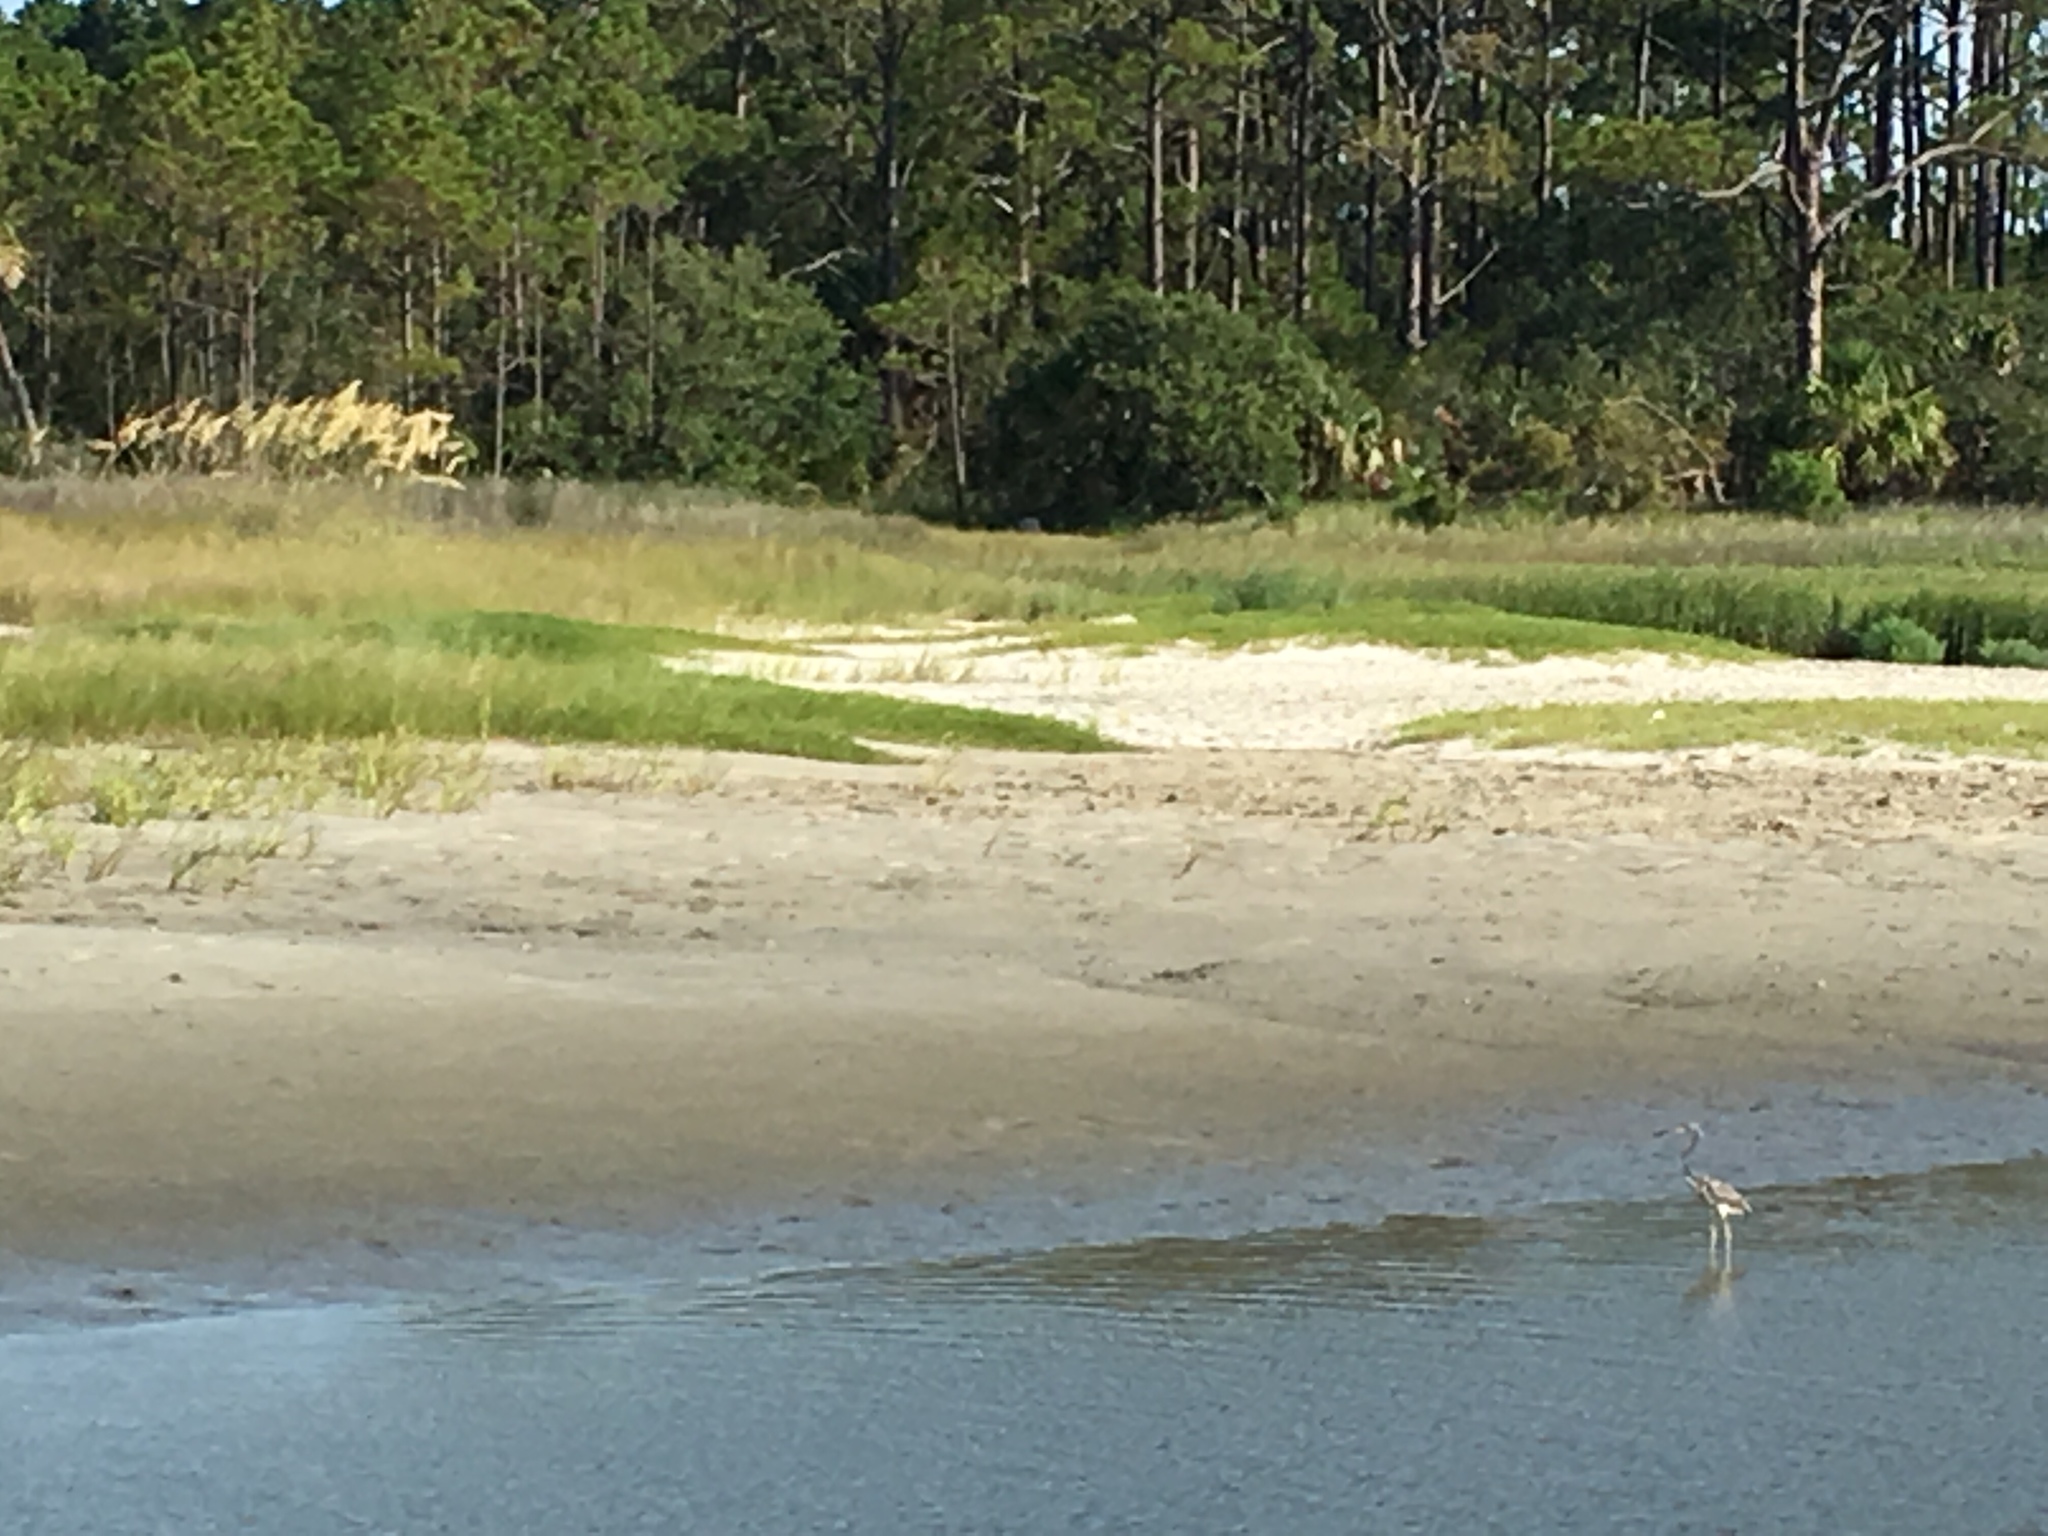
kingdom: Animalia
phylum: Chordata
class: Aves
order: Pelecaniformes
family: Ardeidae
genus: Egretta
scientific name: Egretta tricolor
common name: Tricolored heron
